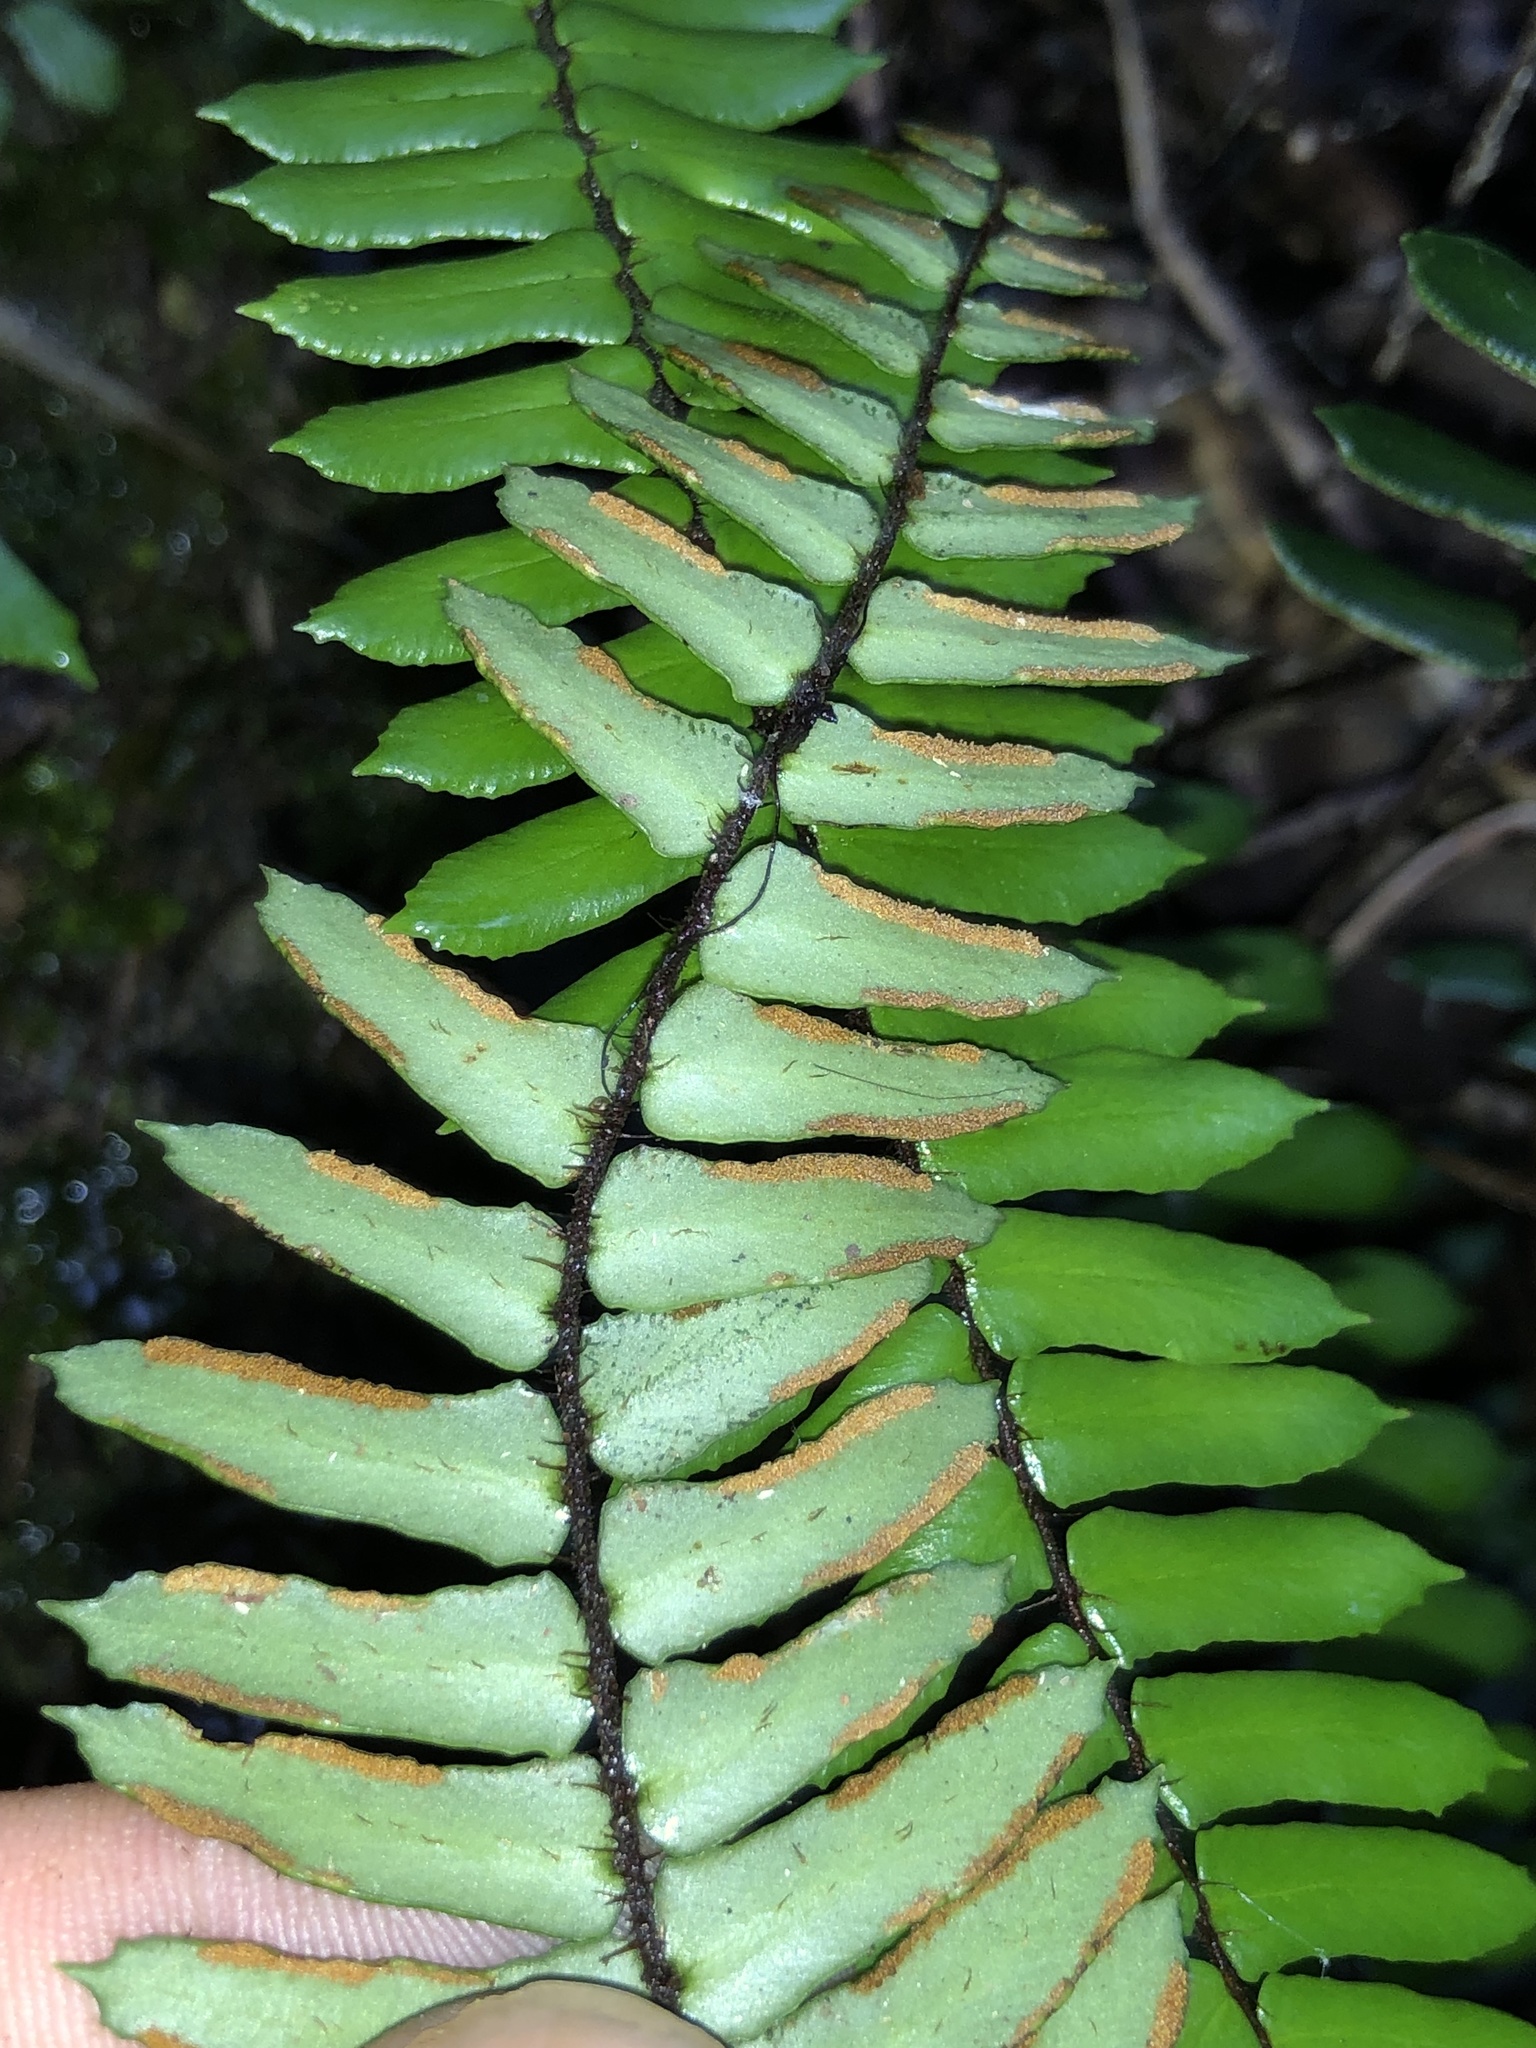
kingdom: Plantae
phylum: Tracheophyta
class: Polypodiopsida
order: Polypodiales
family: Pteridaceae
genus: Pellaea
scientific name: Pellaea nana
